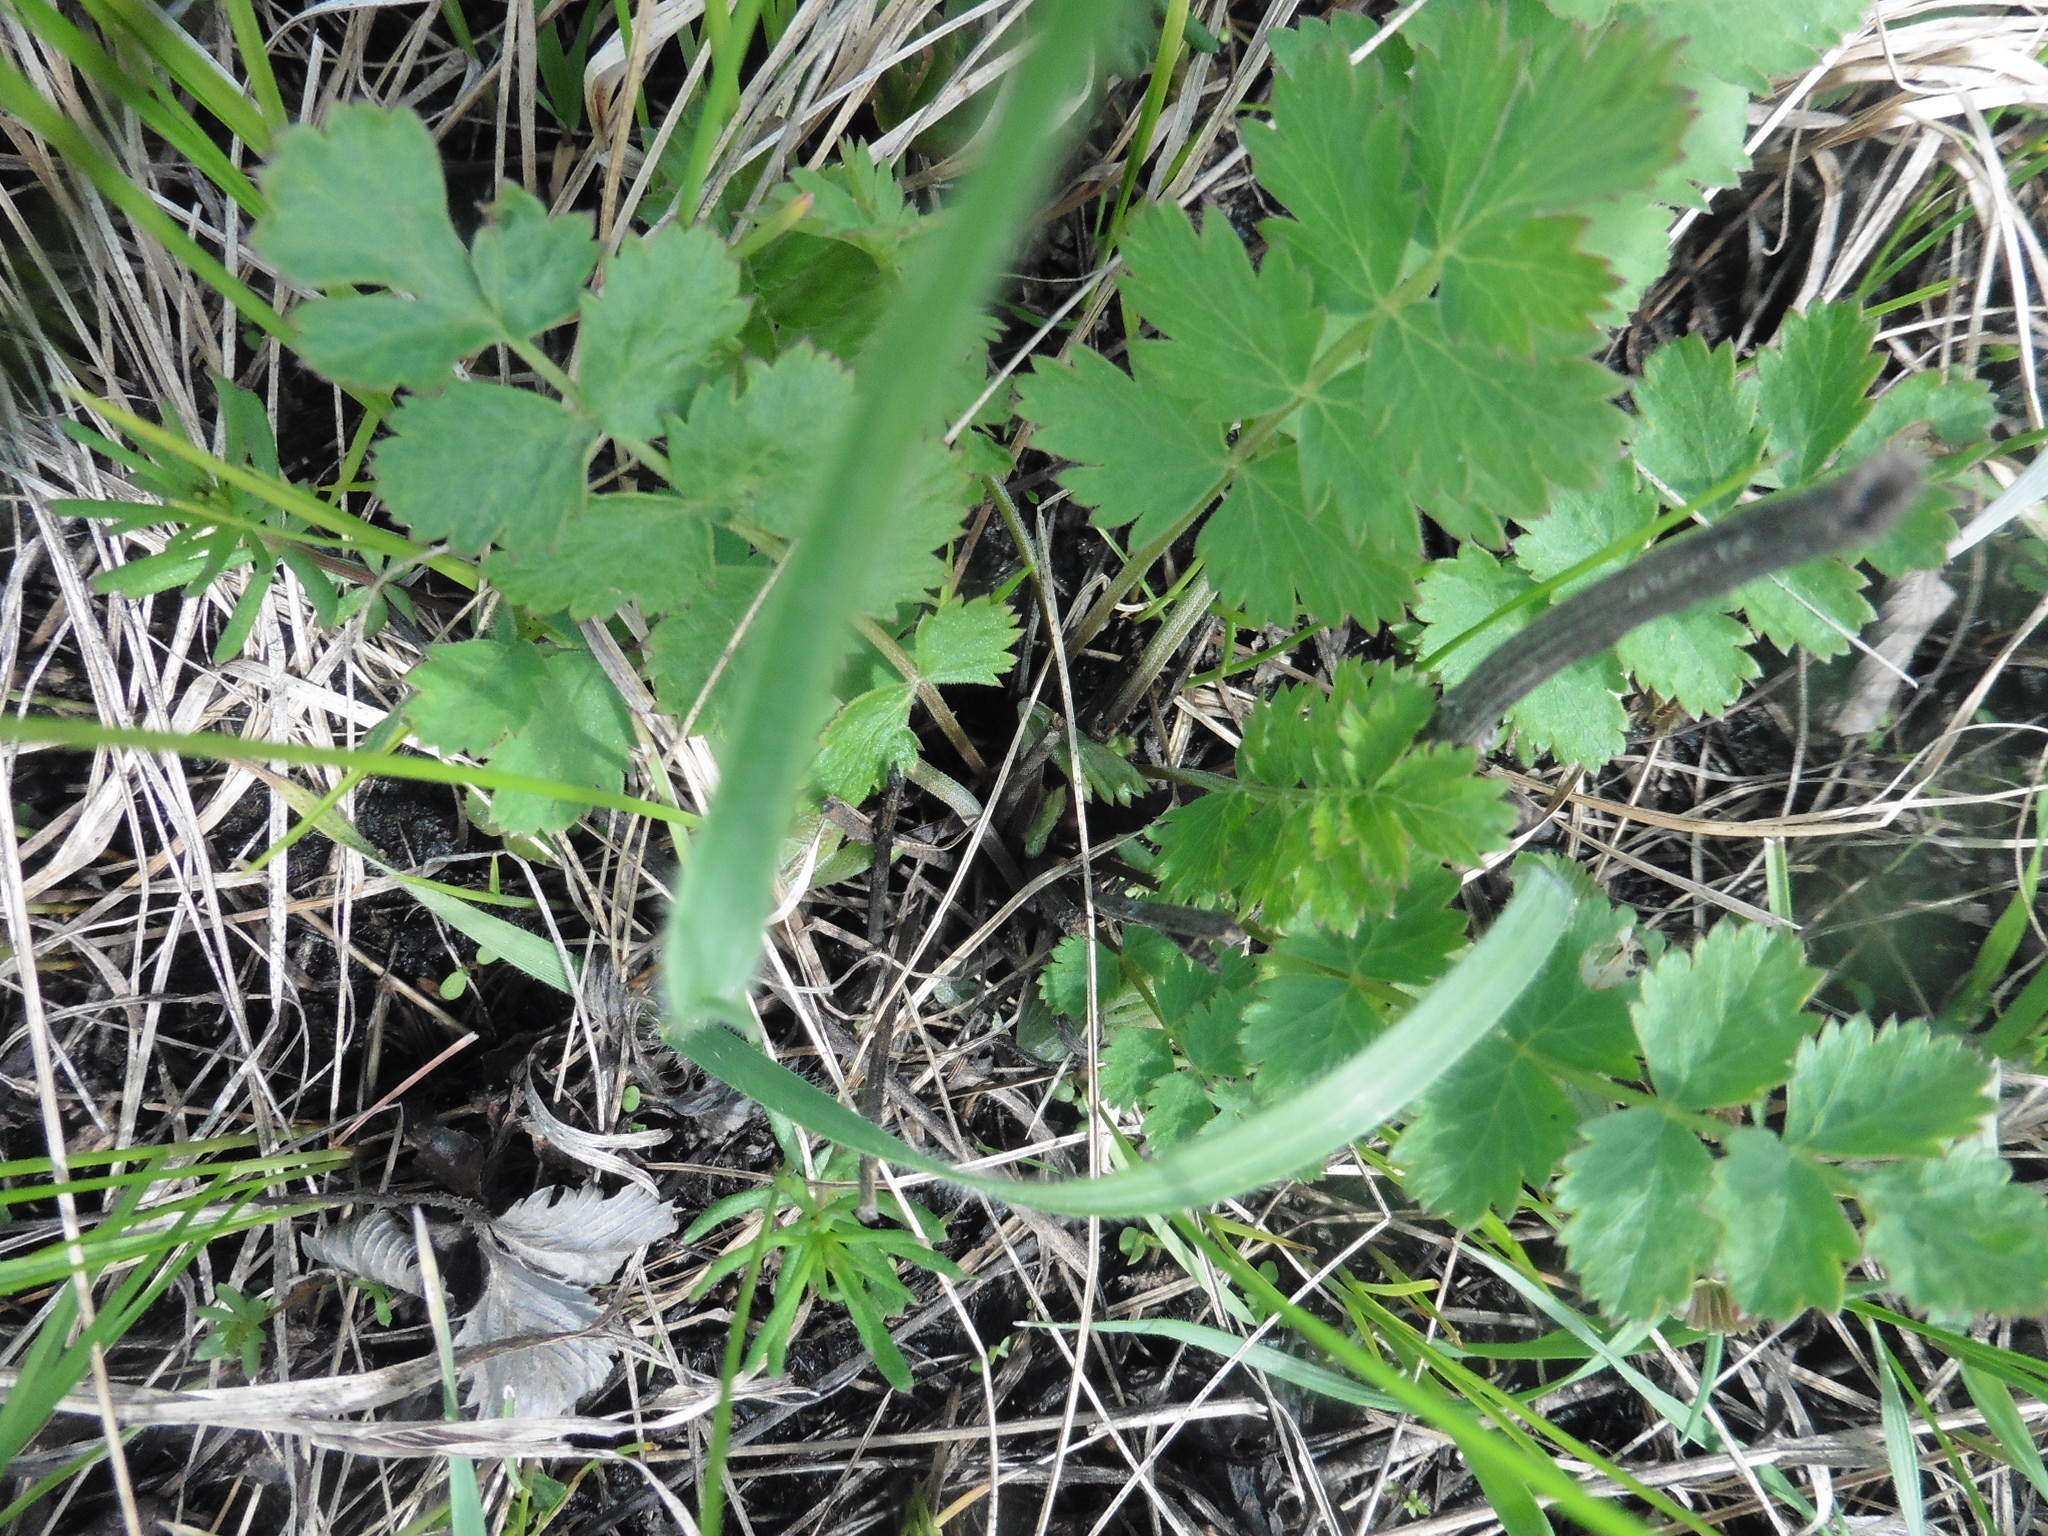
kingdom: Plantae
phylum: Tracheophyta
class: Magnoliopsida
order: Apiales
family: Apiaceae
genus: Pimpinella
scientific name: Pimpinella saxifraga
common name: Burnet-saxifrage
